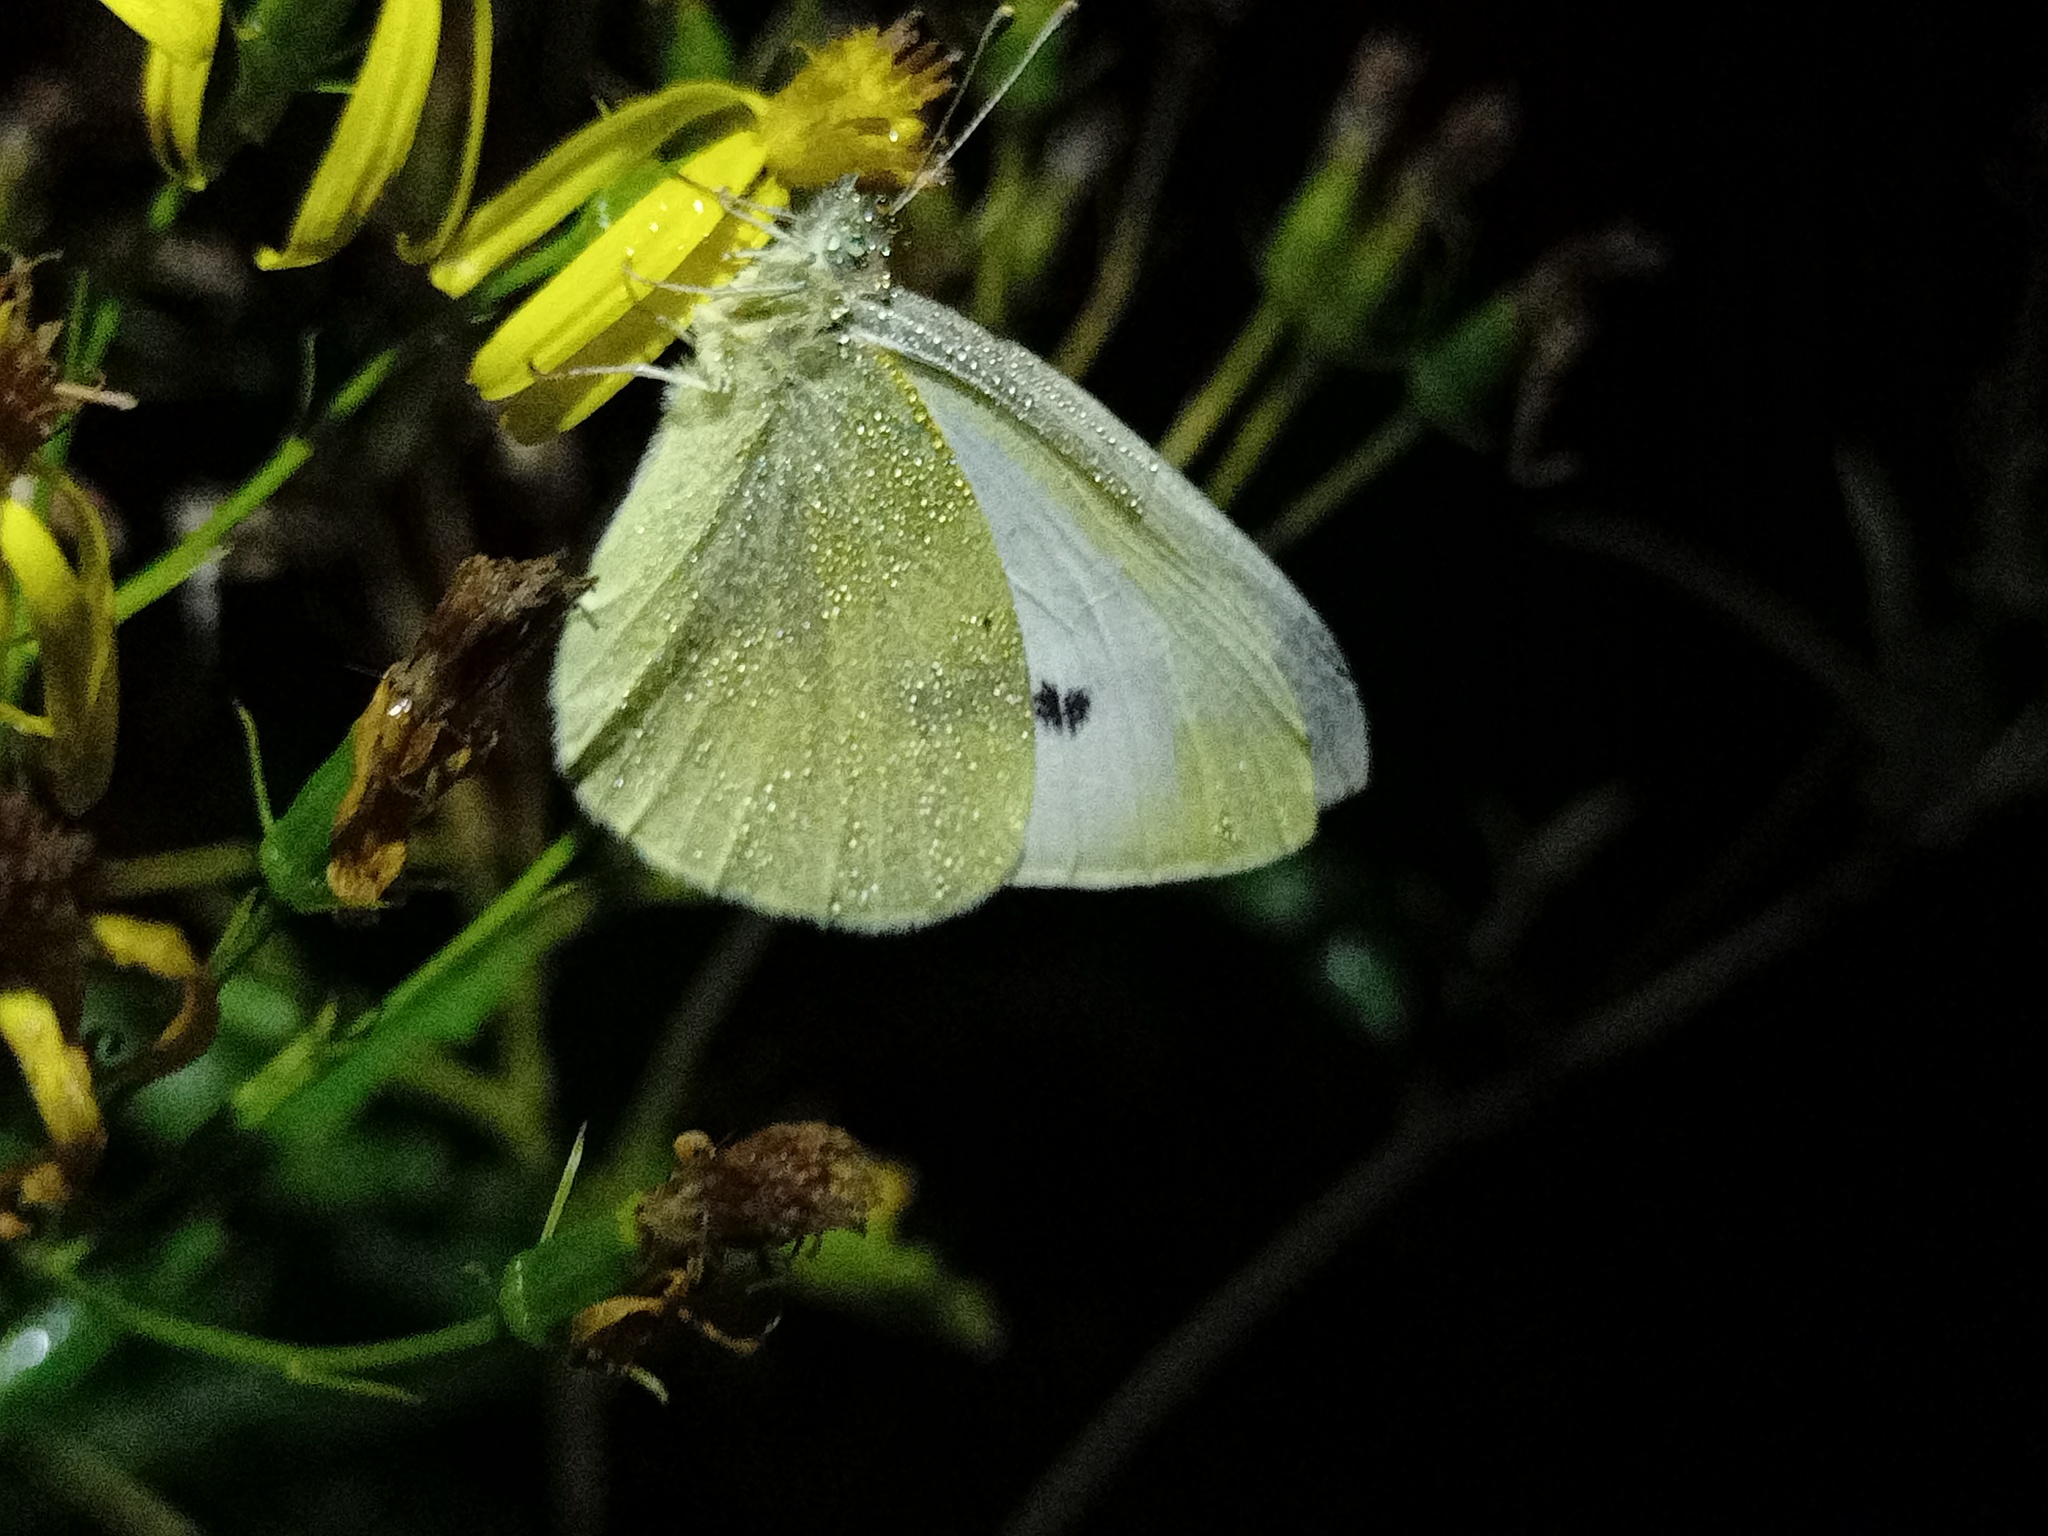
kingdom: Animalia
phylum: Arthropoda
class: Insecta
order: Lepidoptera
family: Pieridae
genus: Pieris
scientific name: Pieris rapae
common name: Small white
